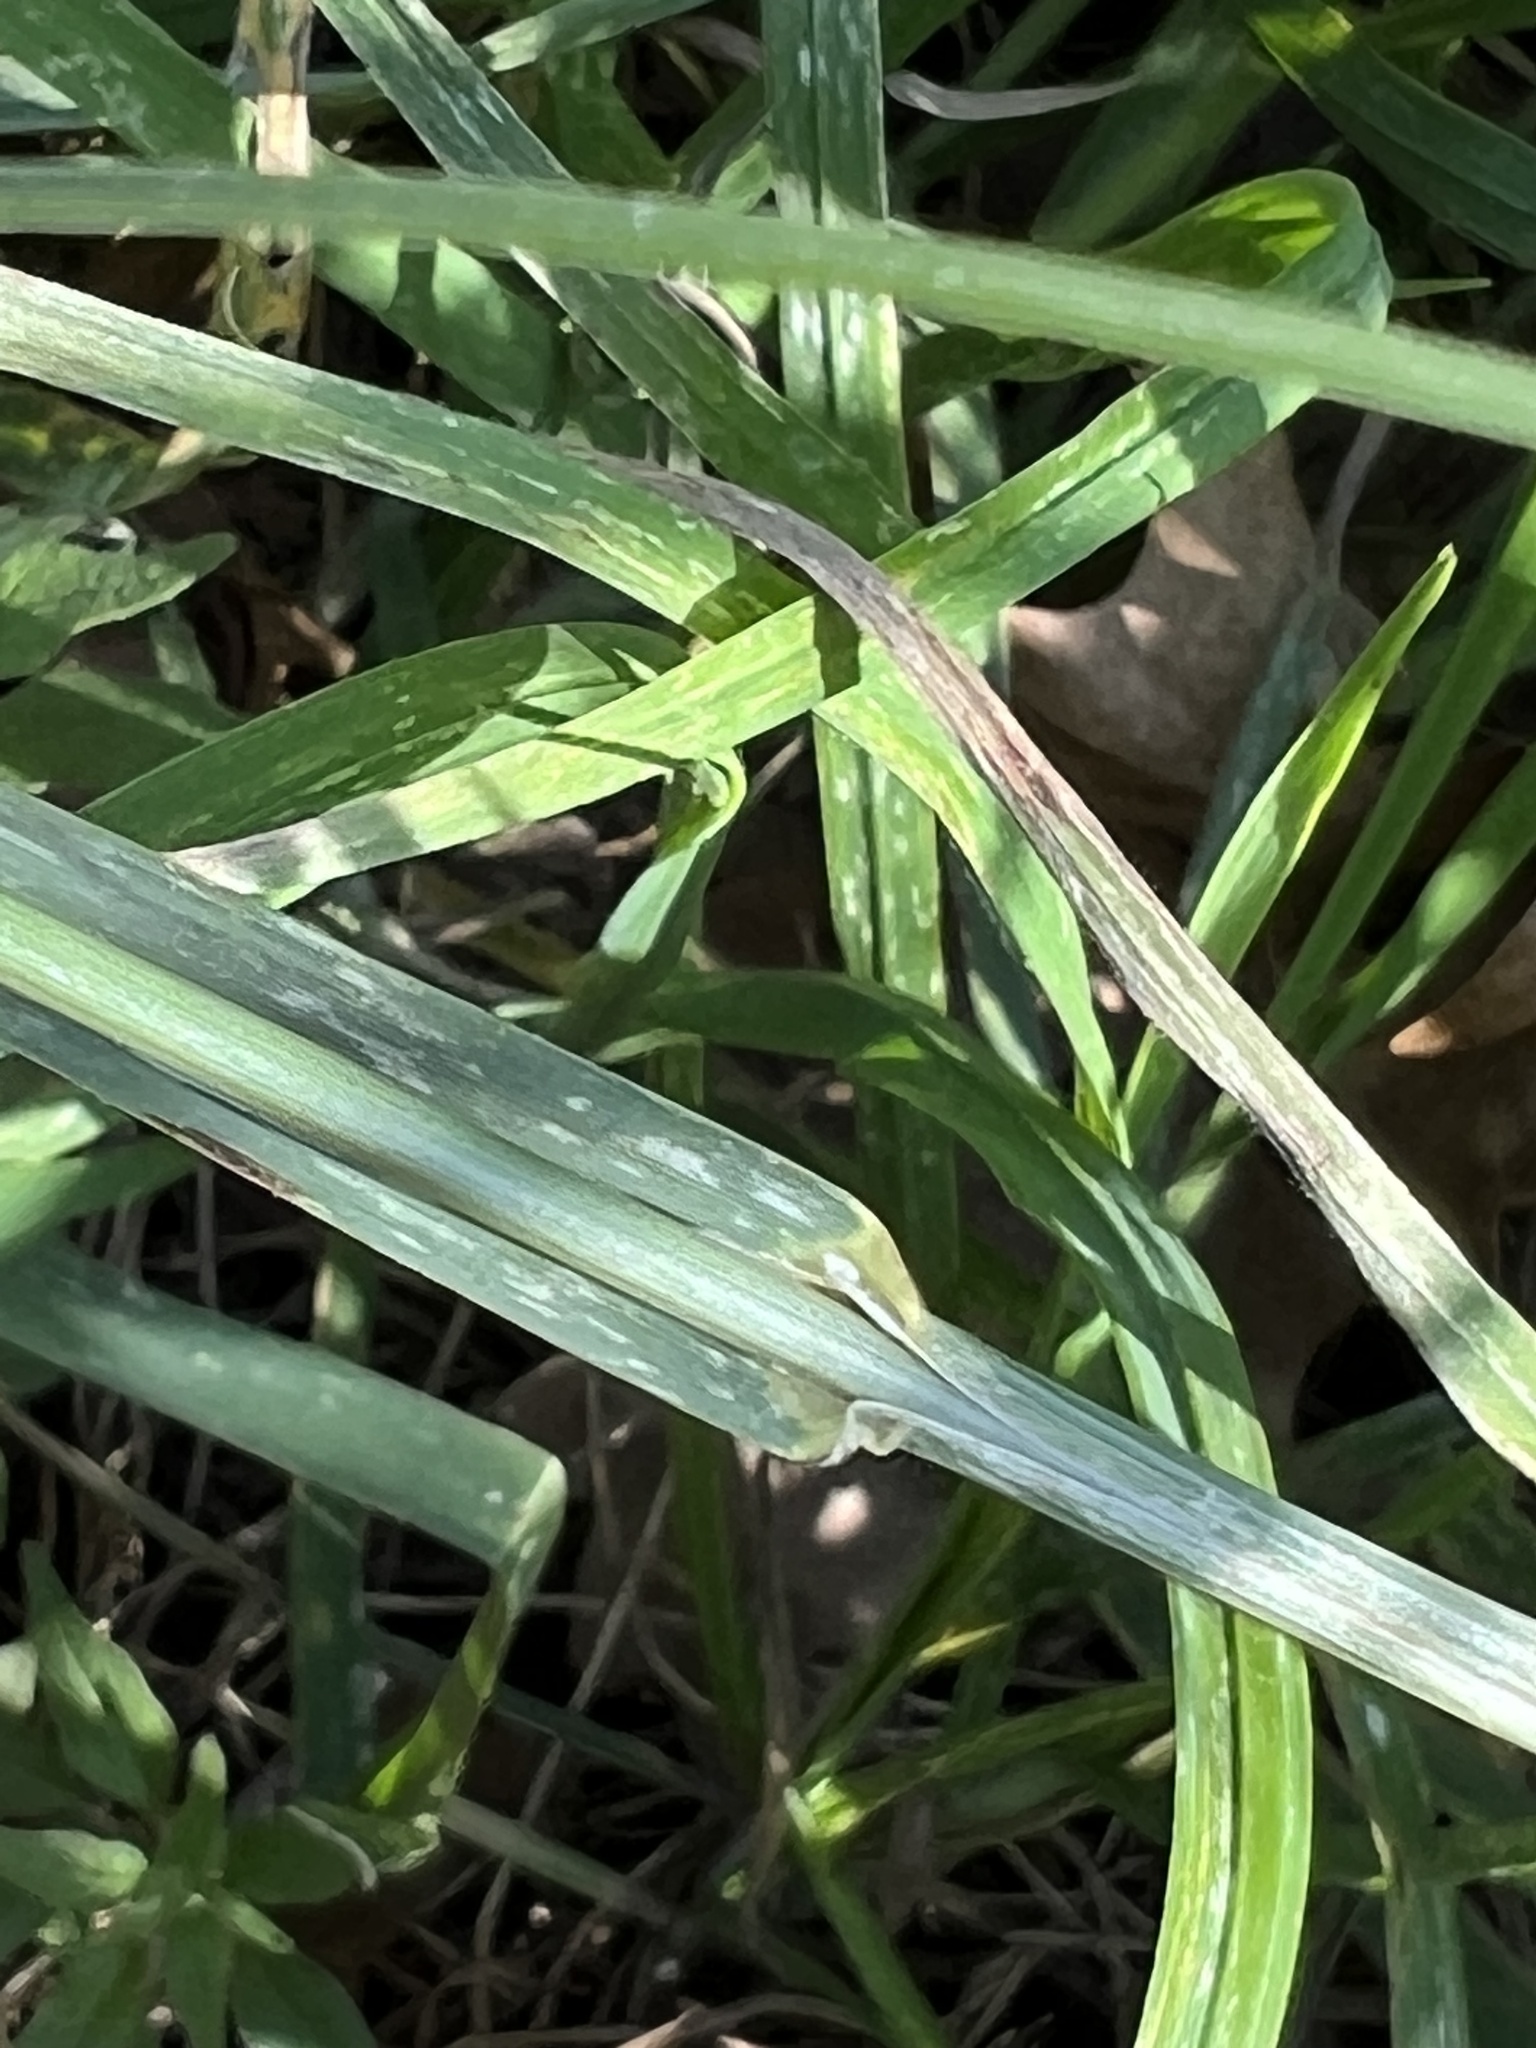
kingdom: Plantae
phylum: Tracheophyta
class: Liliopsida
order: Poales
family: Poaceae
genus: Bromus
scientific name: Bromus catharticus
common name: Rescuegrass
